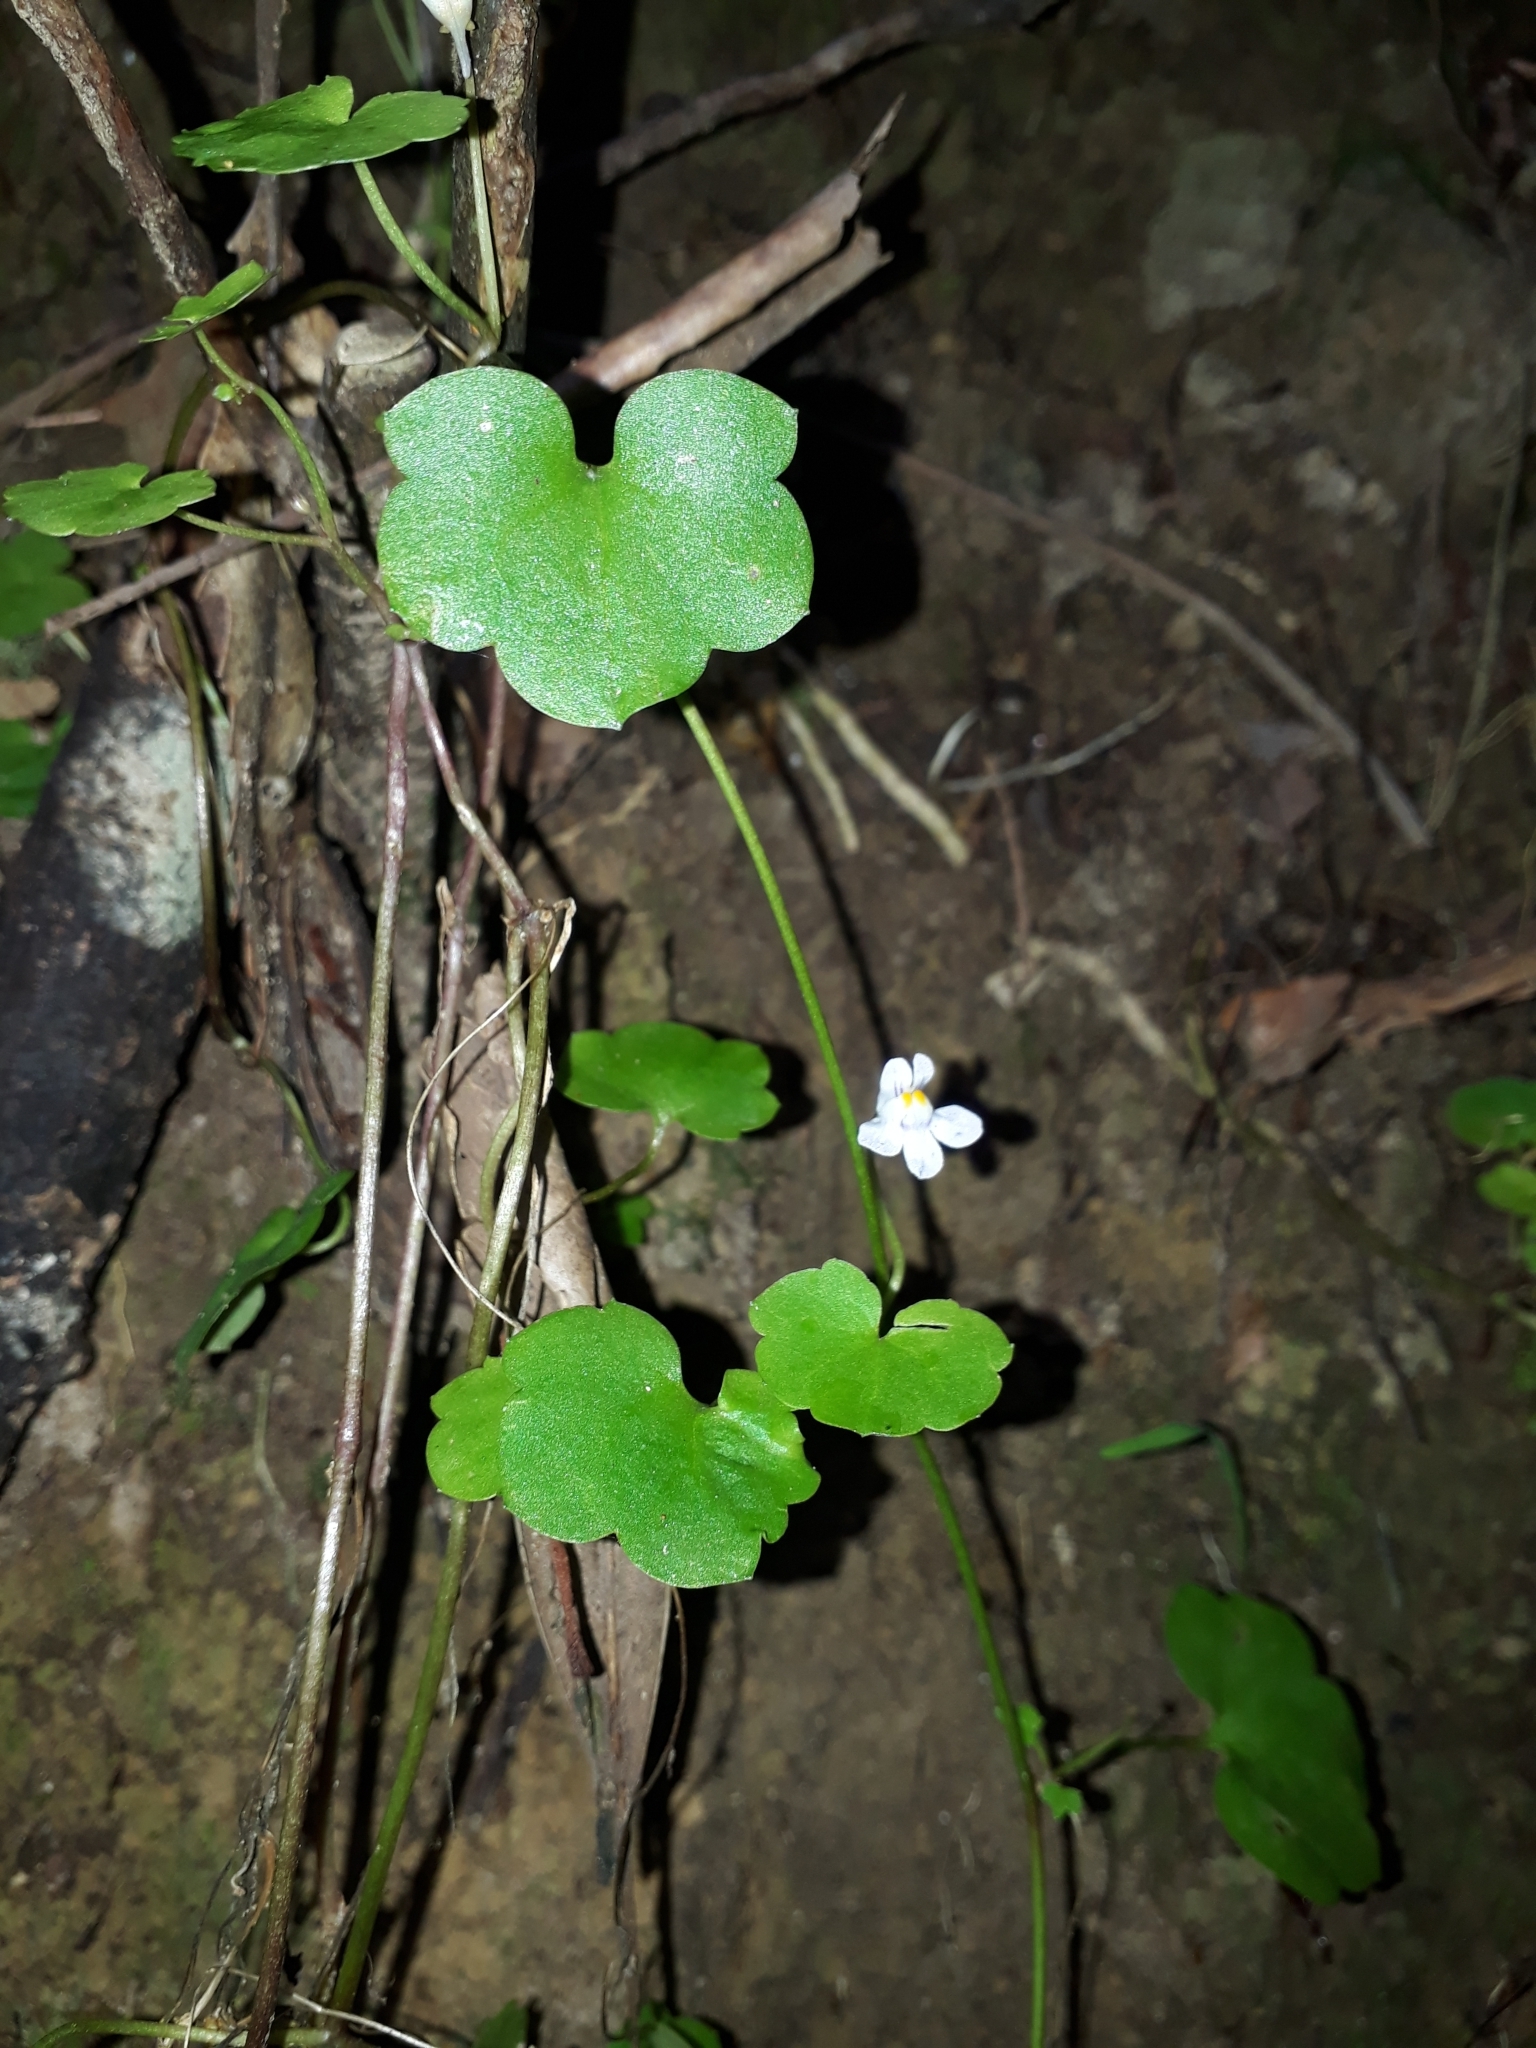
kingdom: Plantae
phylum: Tracheophyta
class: Magnoliopsida
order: Lamiales
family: Plantaginaceae
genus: Cymbalaria
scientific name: Cymbalaria muralis
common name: Ivy-leaved toadflax
